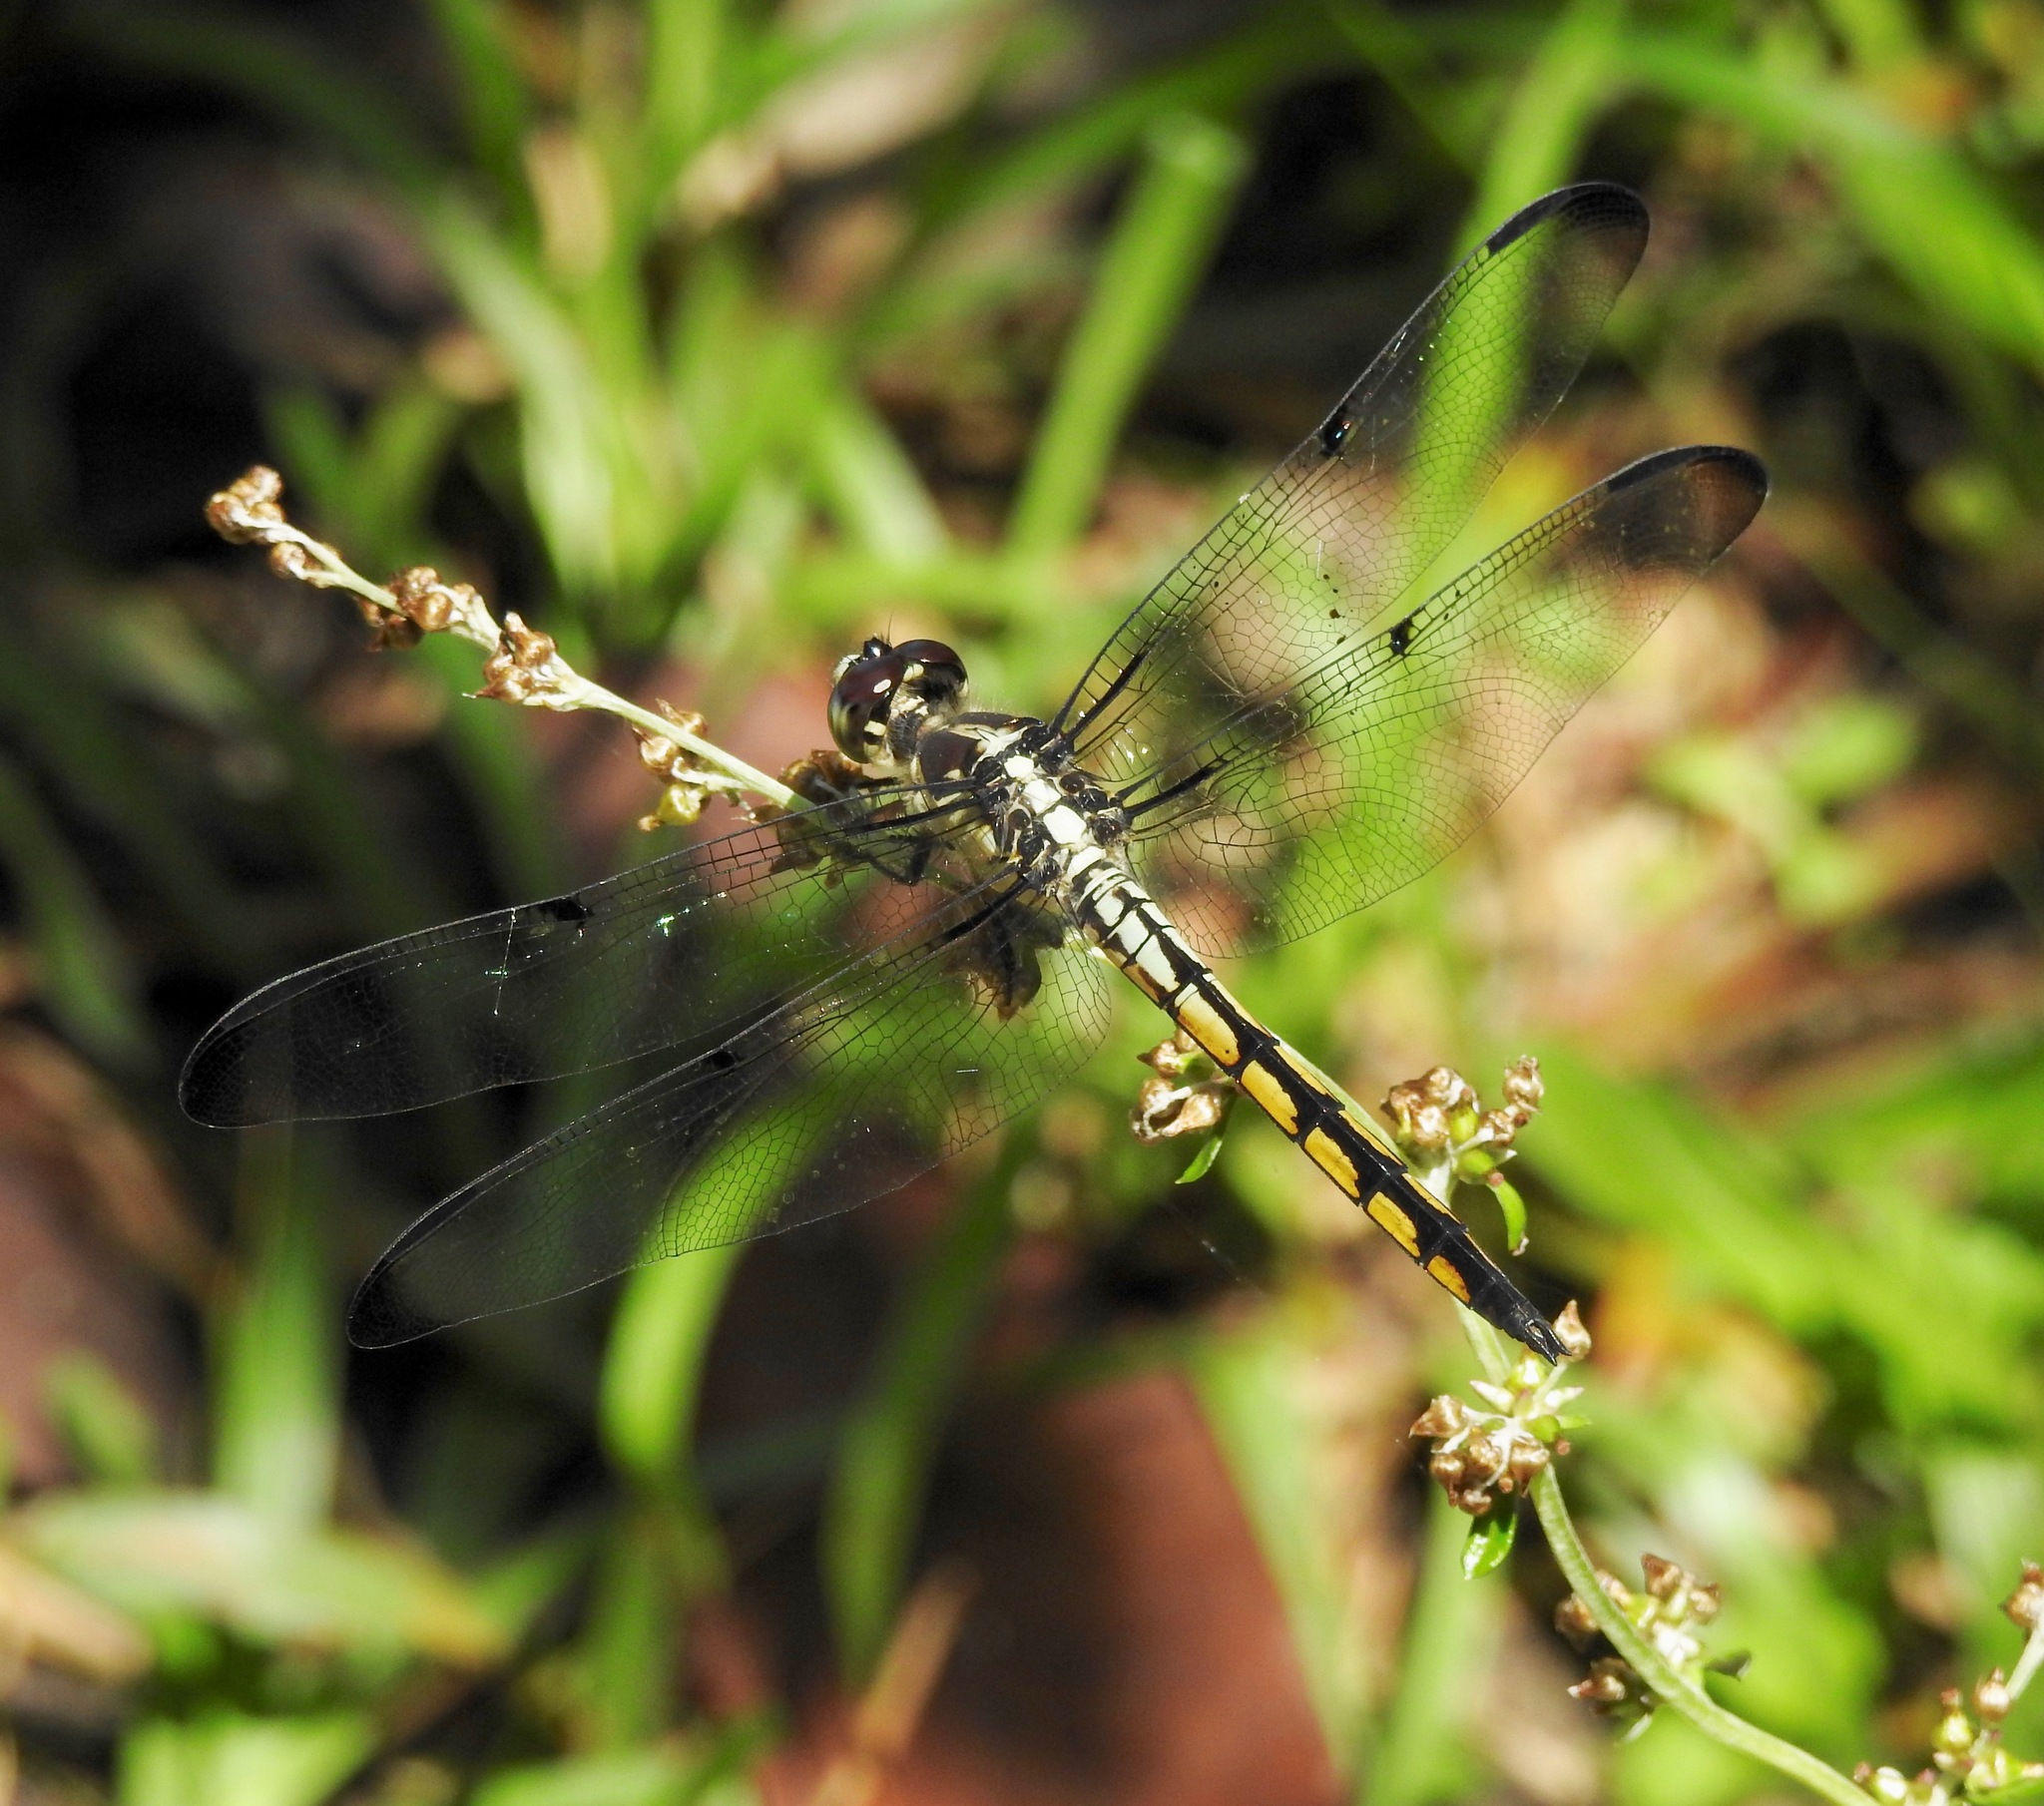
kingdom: Animalia
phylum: Arthropoda
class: Insecta
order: Odonata
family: Libellulidae
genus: Libellula
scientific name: Libellula vibrans
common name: Great blue skimmer
